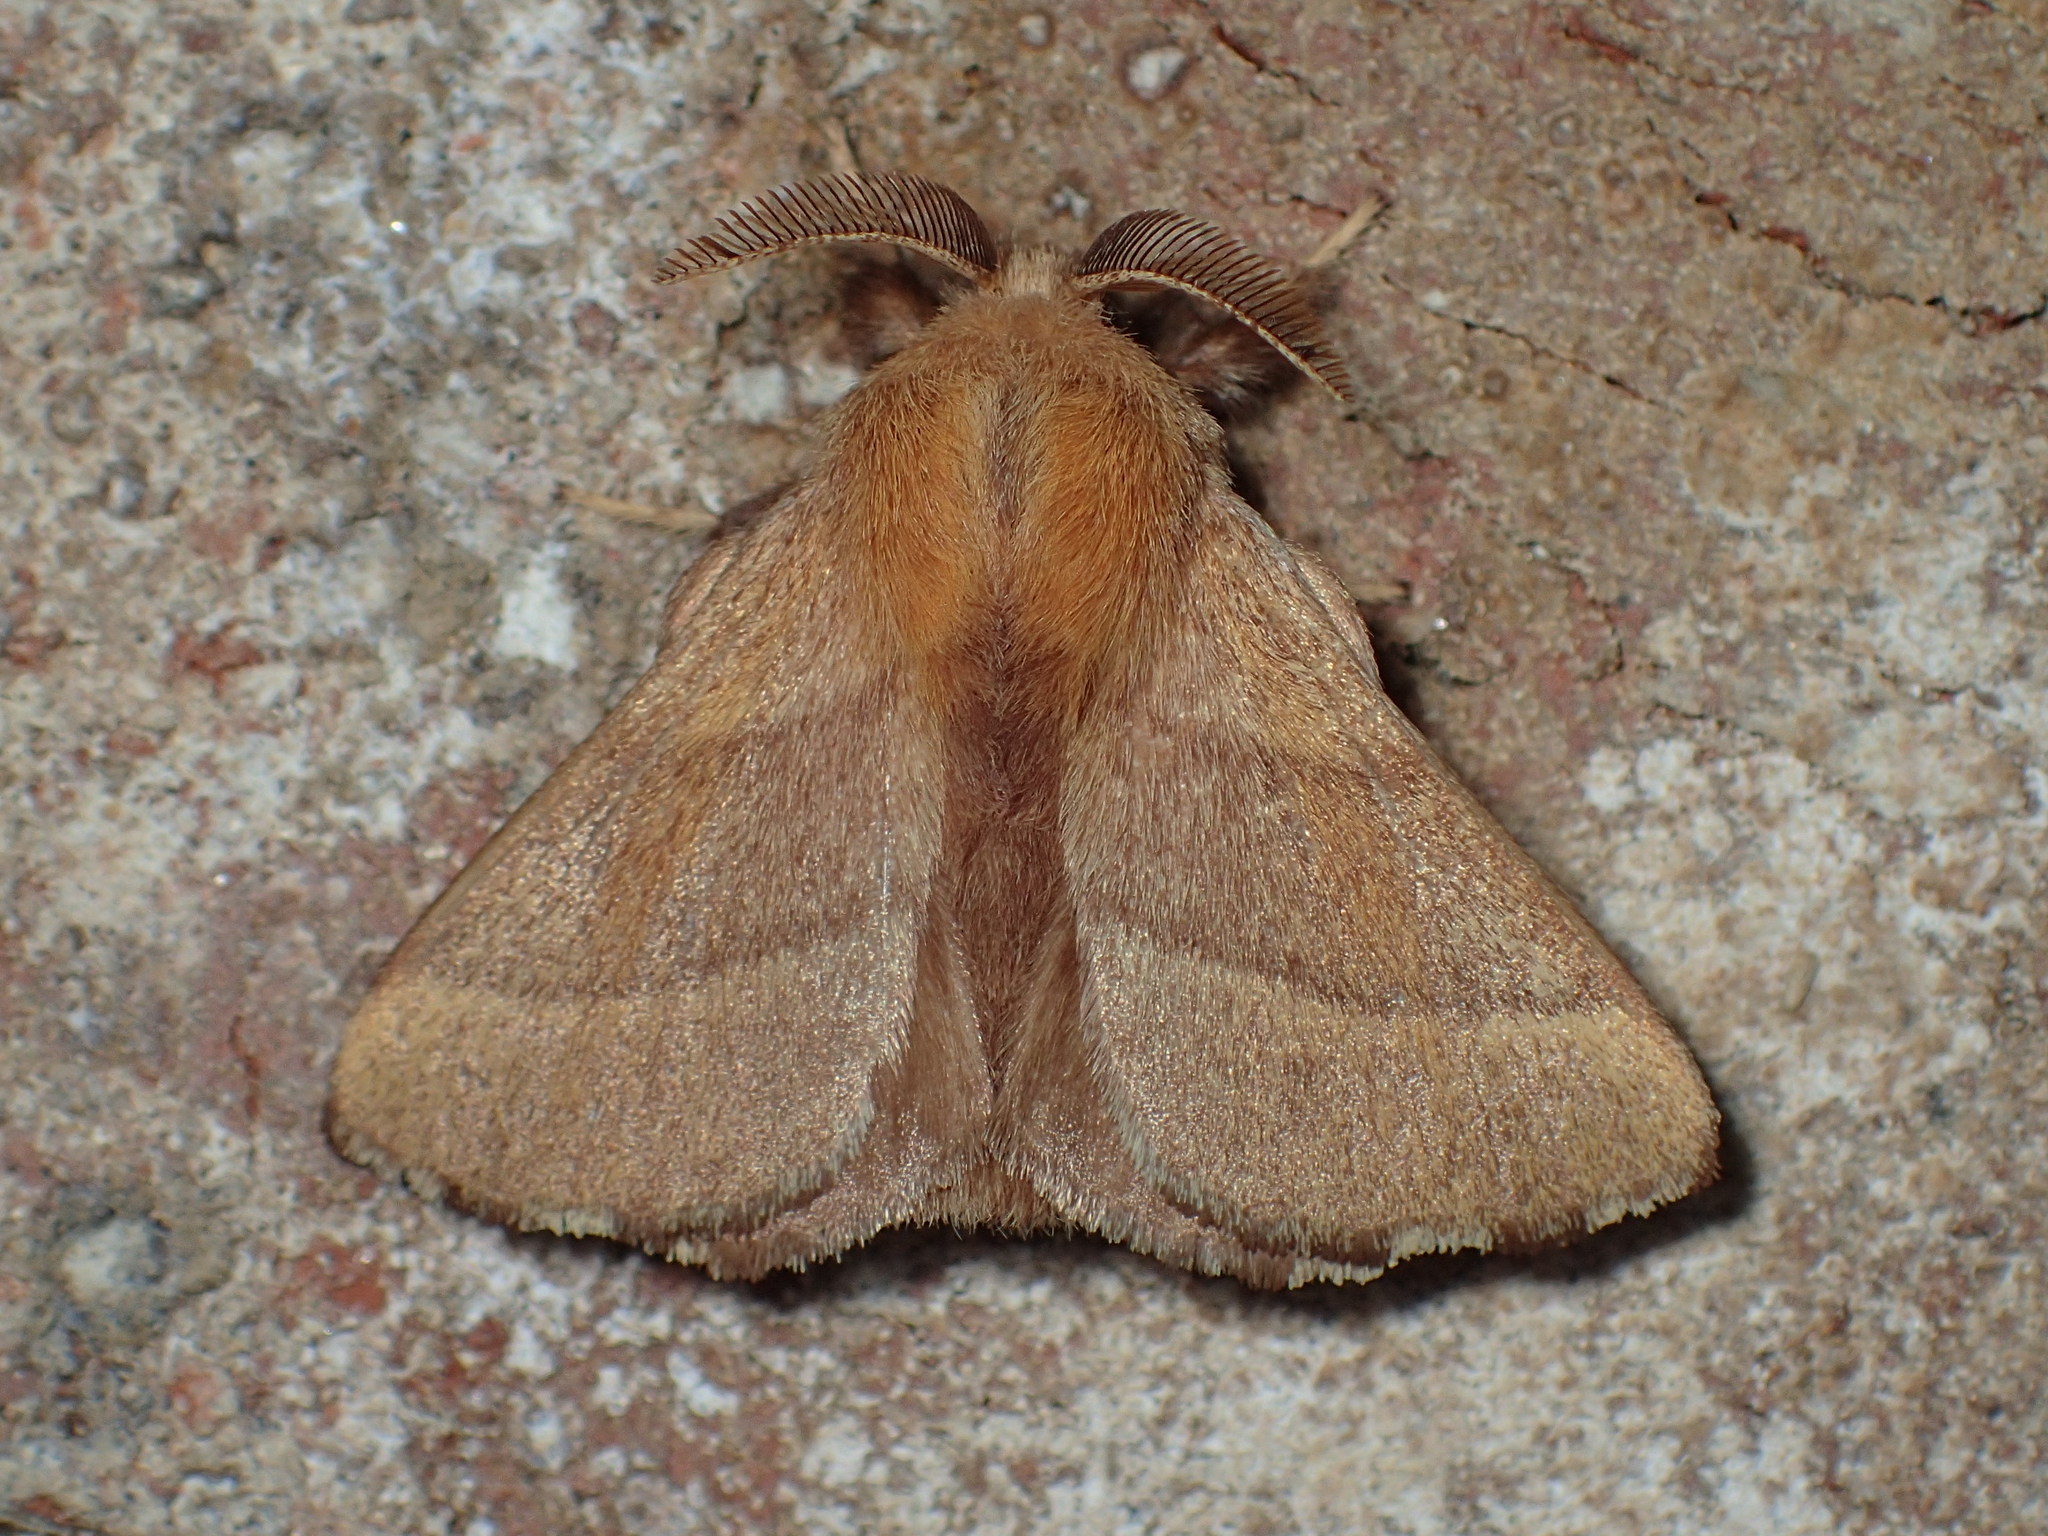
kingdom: Animalia
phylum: Arthropoda
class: Insecta
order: Lepidoptera
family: Lasiocampidae
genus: Malacosoma
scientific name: Malacosoma disstria
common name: Forest tent caterpillar
